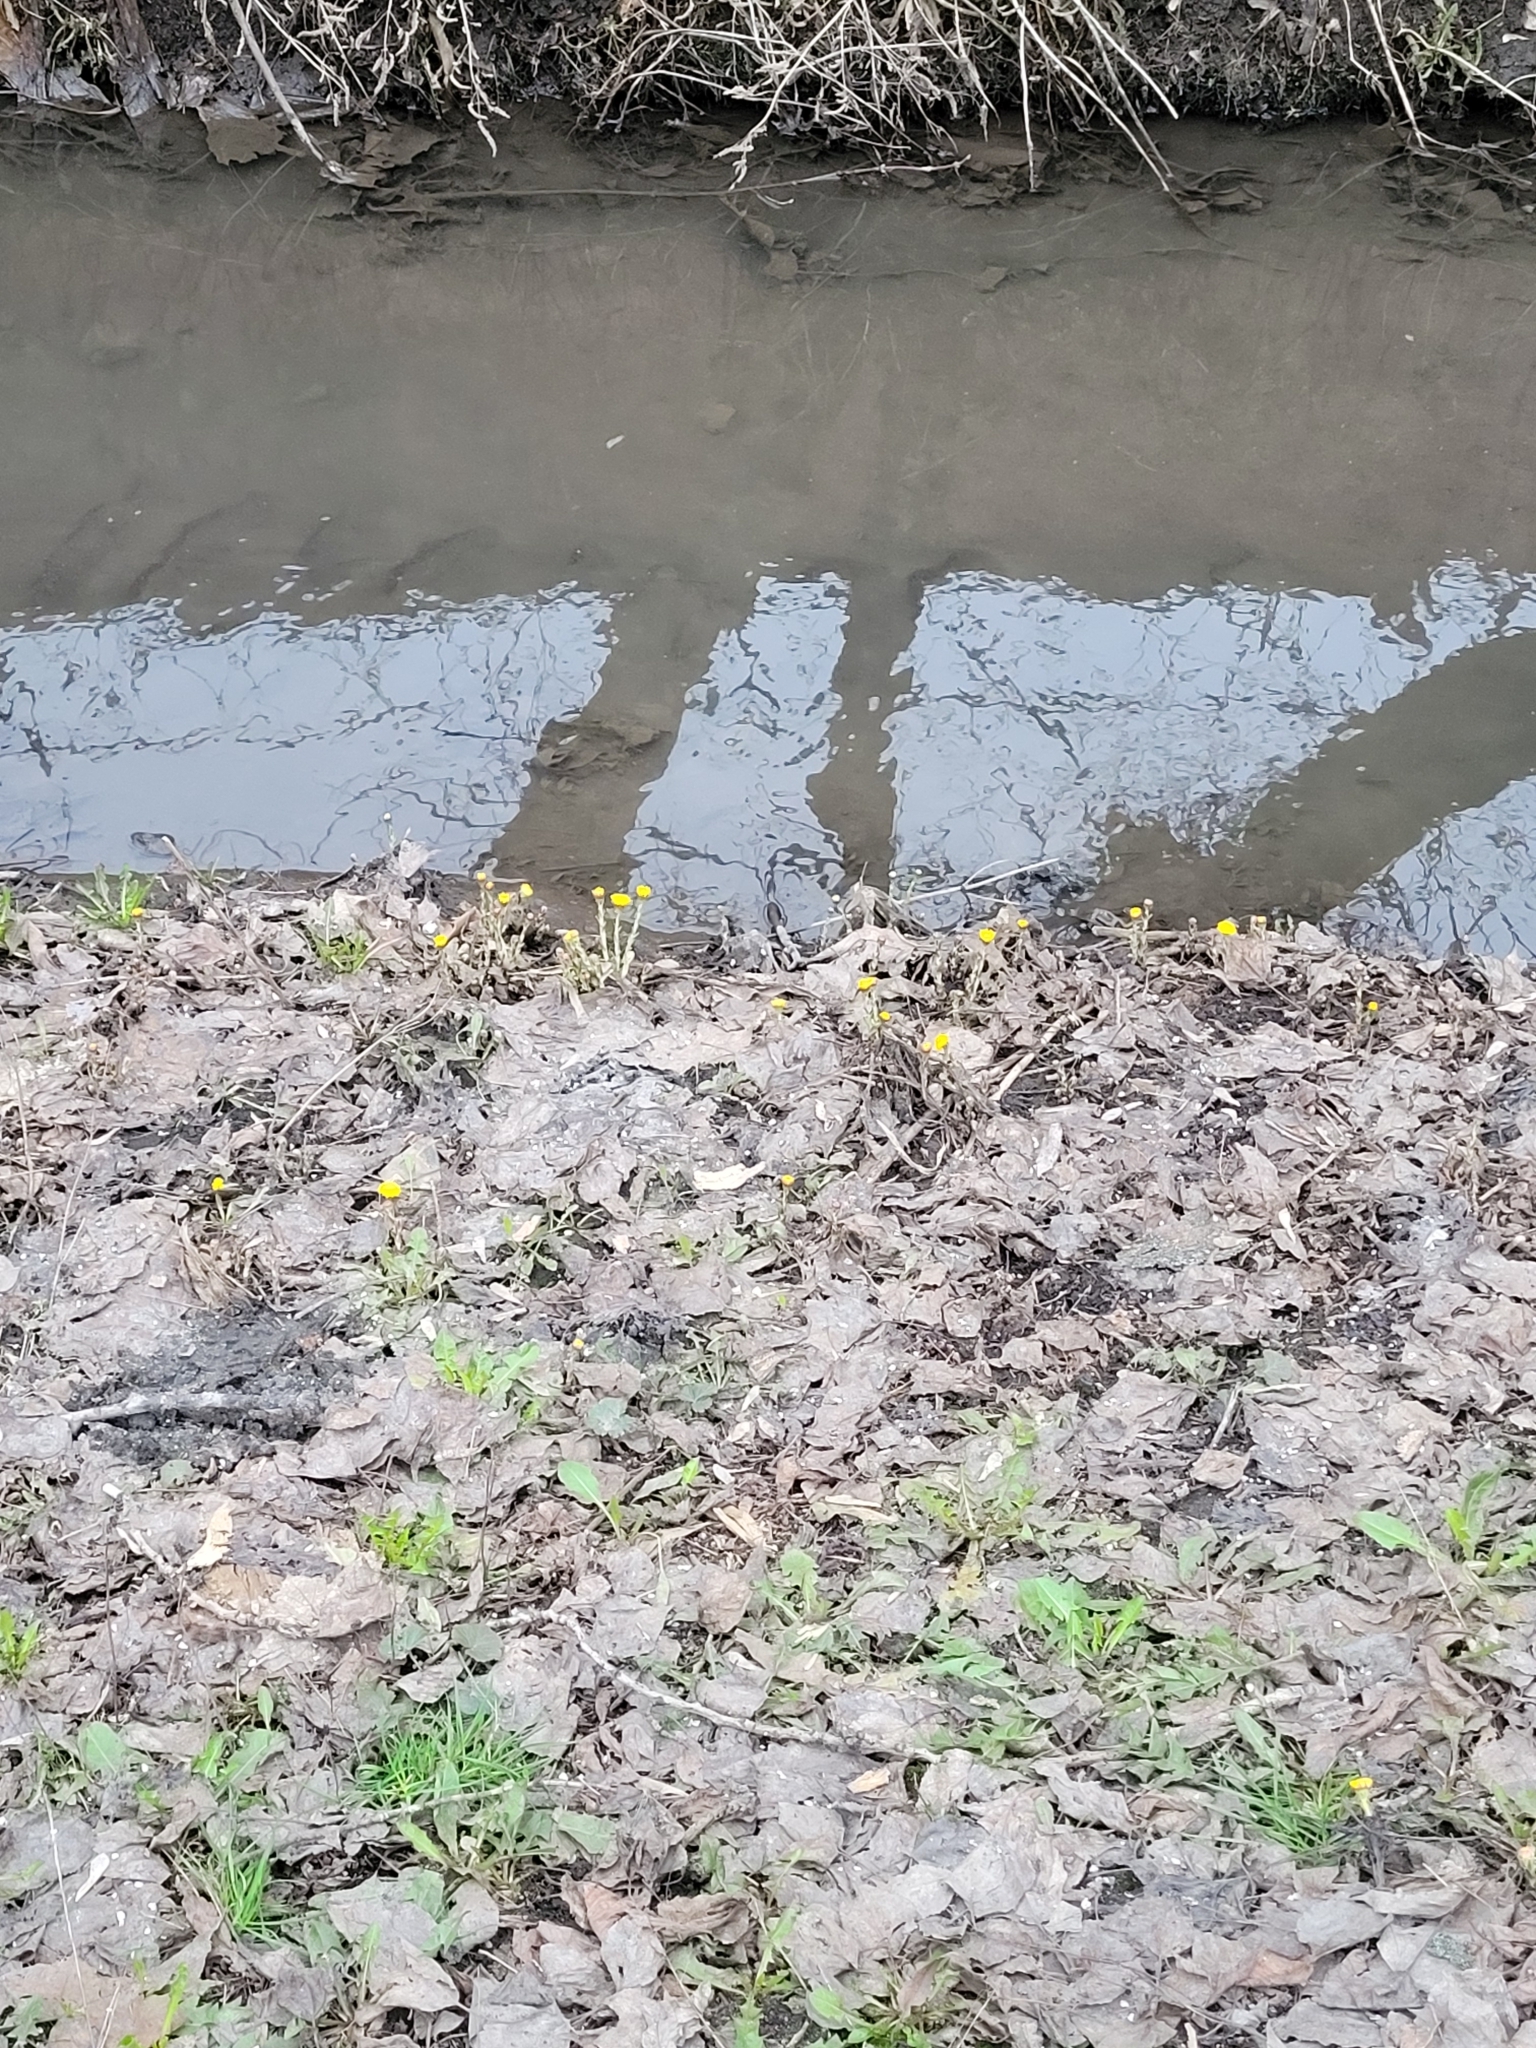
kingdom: Plantae
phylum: Tracheophyta
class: Magnoliopsida
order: Asterales
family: Asteraceae
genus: Tussilago
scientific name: Tussilago farfara
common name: Coltsfoot
